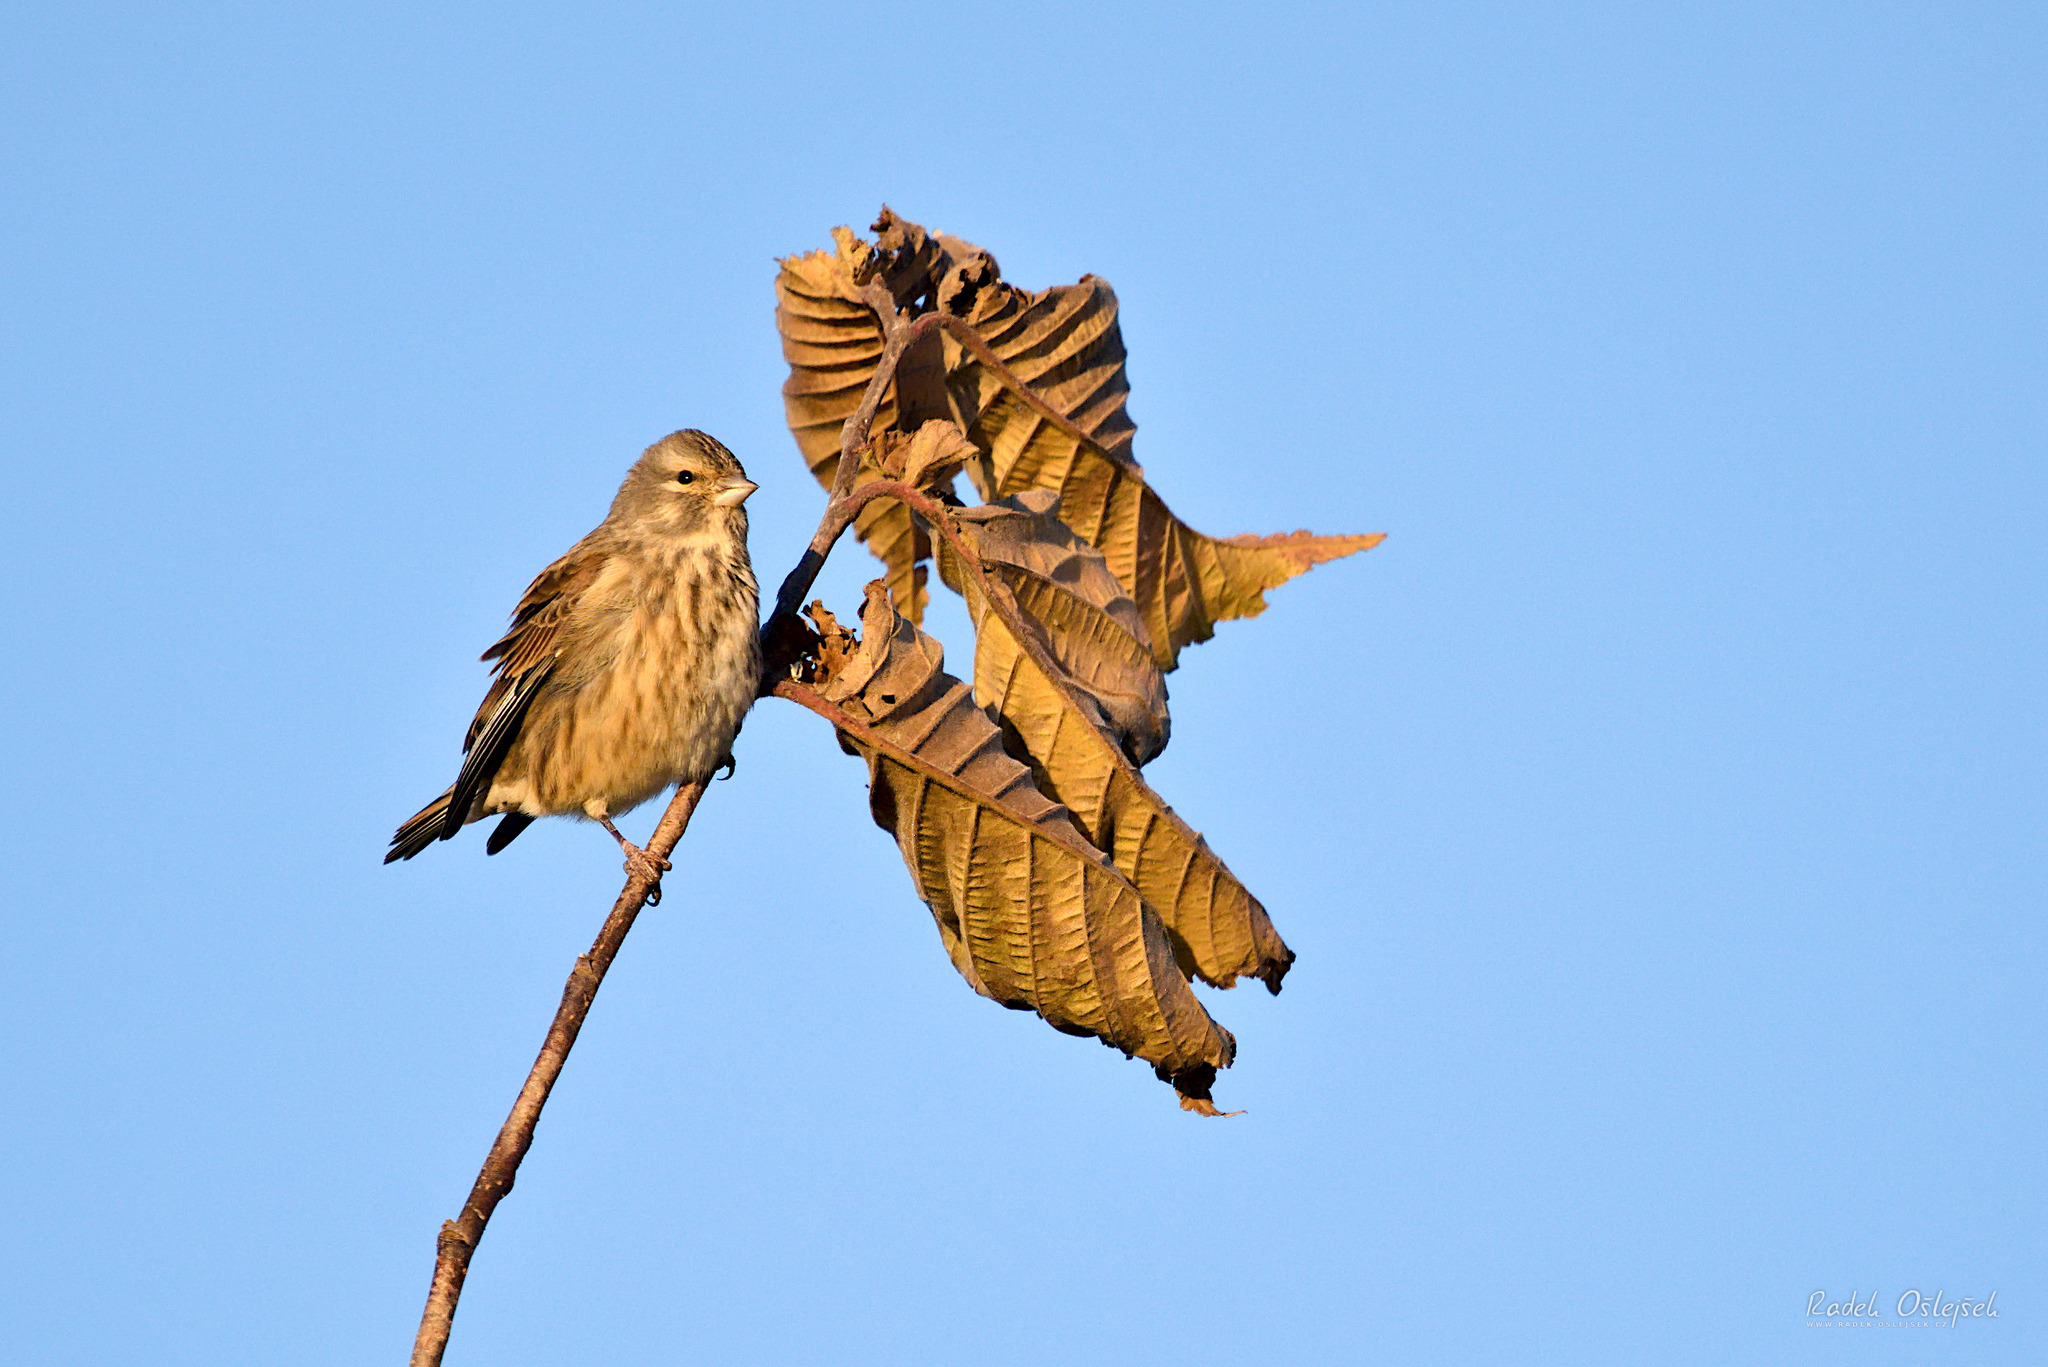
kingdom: Animalia
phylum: Chordata
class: Aves
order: Passeriformes
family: Fringillidae
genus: Linaria
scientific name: Linaria cannabina
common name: Common linnet
